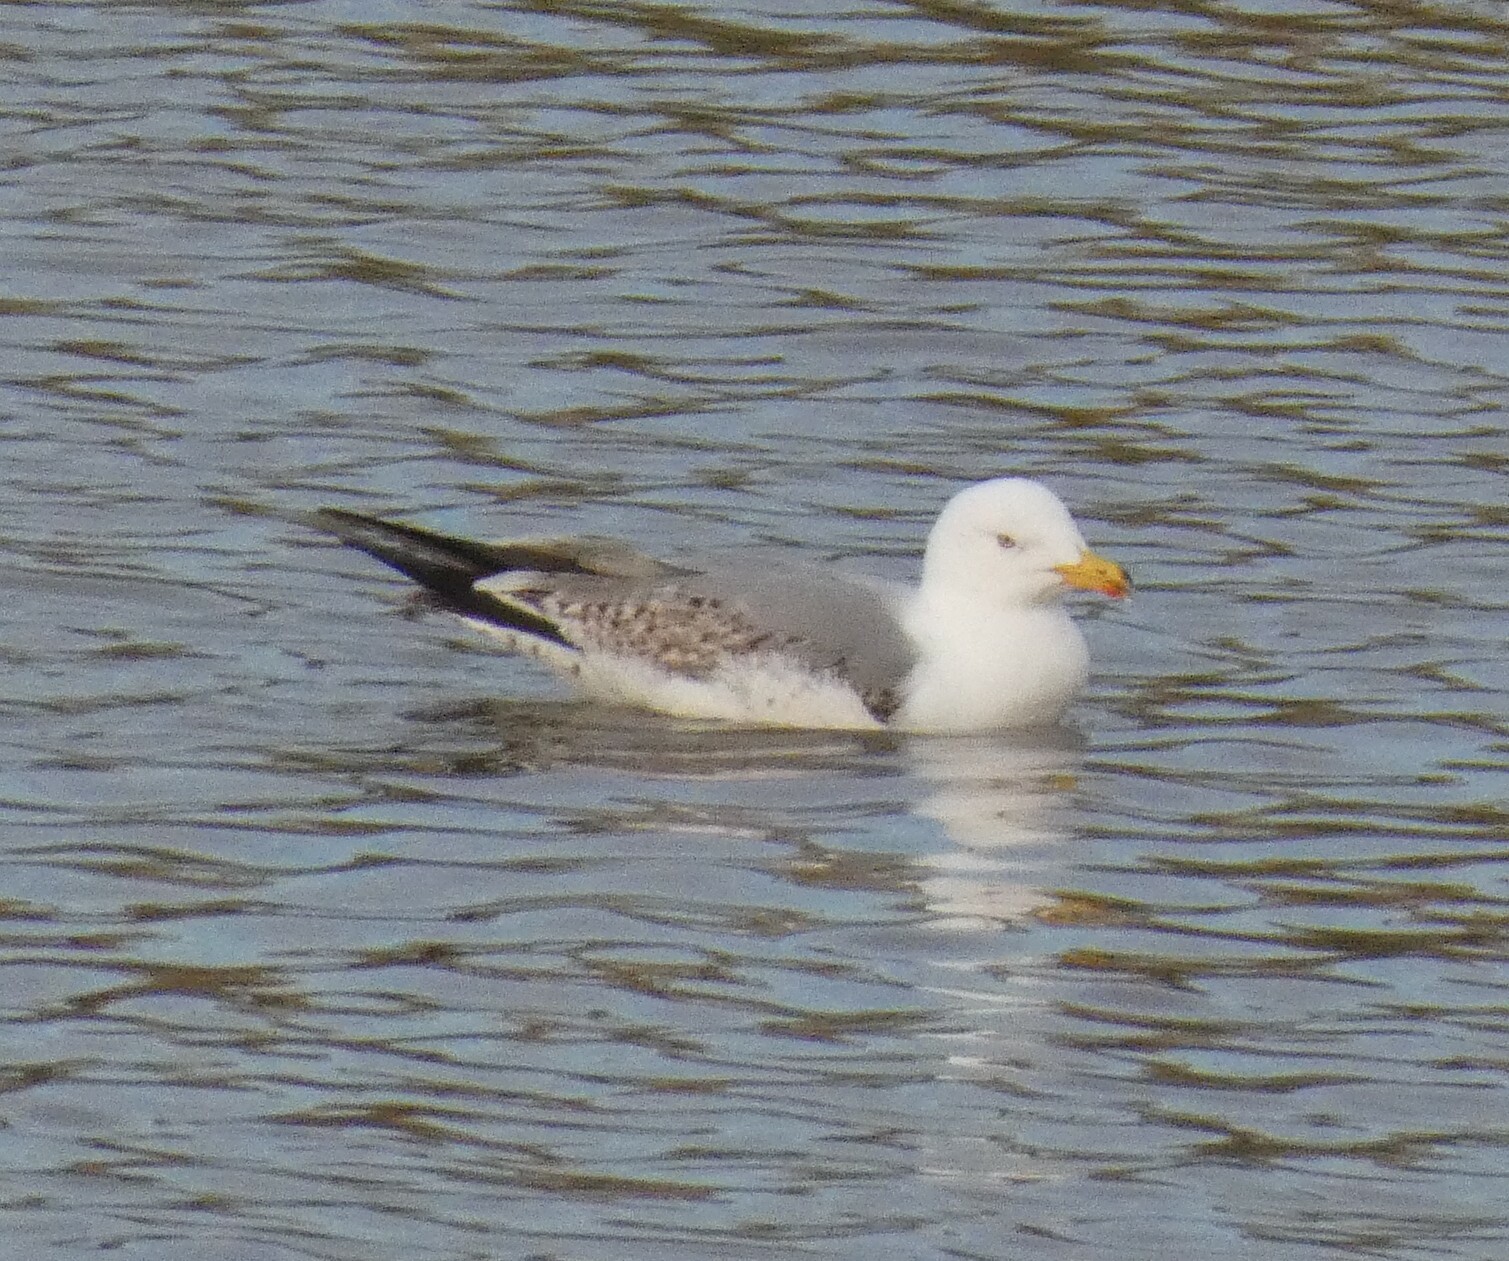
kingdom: Animalia
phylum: Chordata
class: Aves
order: Charadriiformes
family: Laridae
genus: Larus
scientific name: Larus michahellis
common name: Yellow-legged gull
